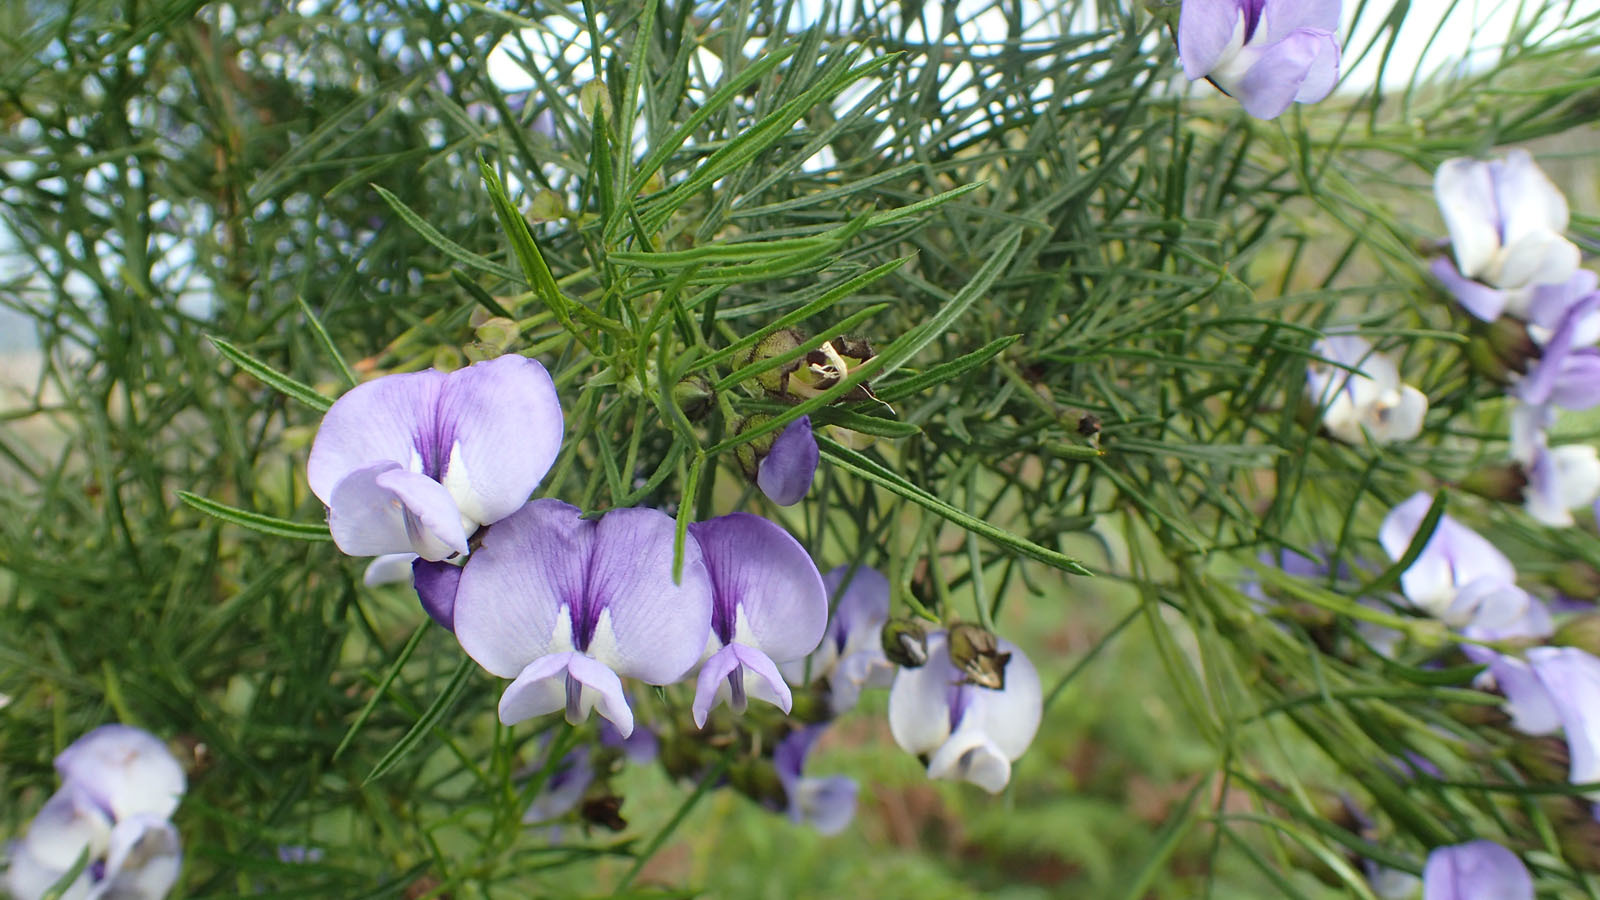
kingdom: Plantae
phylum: Tracheophyta
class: Magnoliopsida
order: Fabales
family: Fabaceae
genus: Psoralea
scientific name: Psoralea affinis
